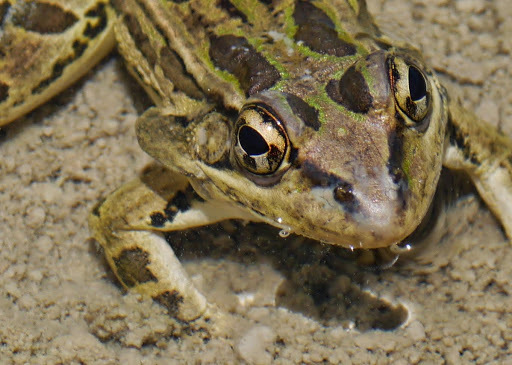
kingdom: Animalia
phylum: Chordata
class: Amphibia
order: Anura
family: Ranidae
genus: Lithobates
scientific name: Lithobates berlandieri
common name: Rio grande leopard frog
